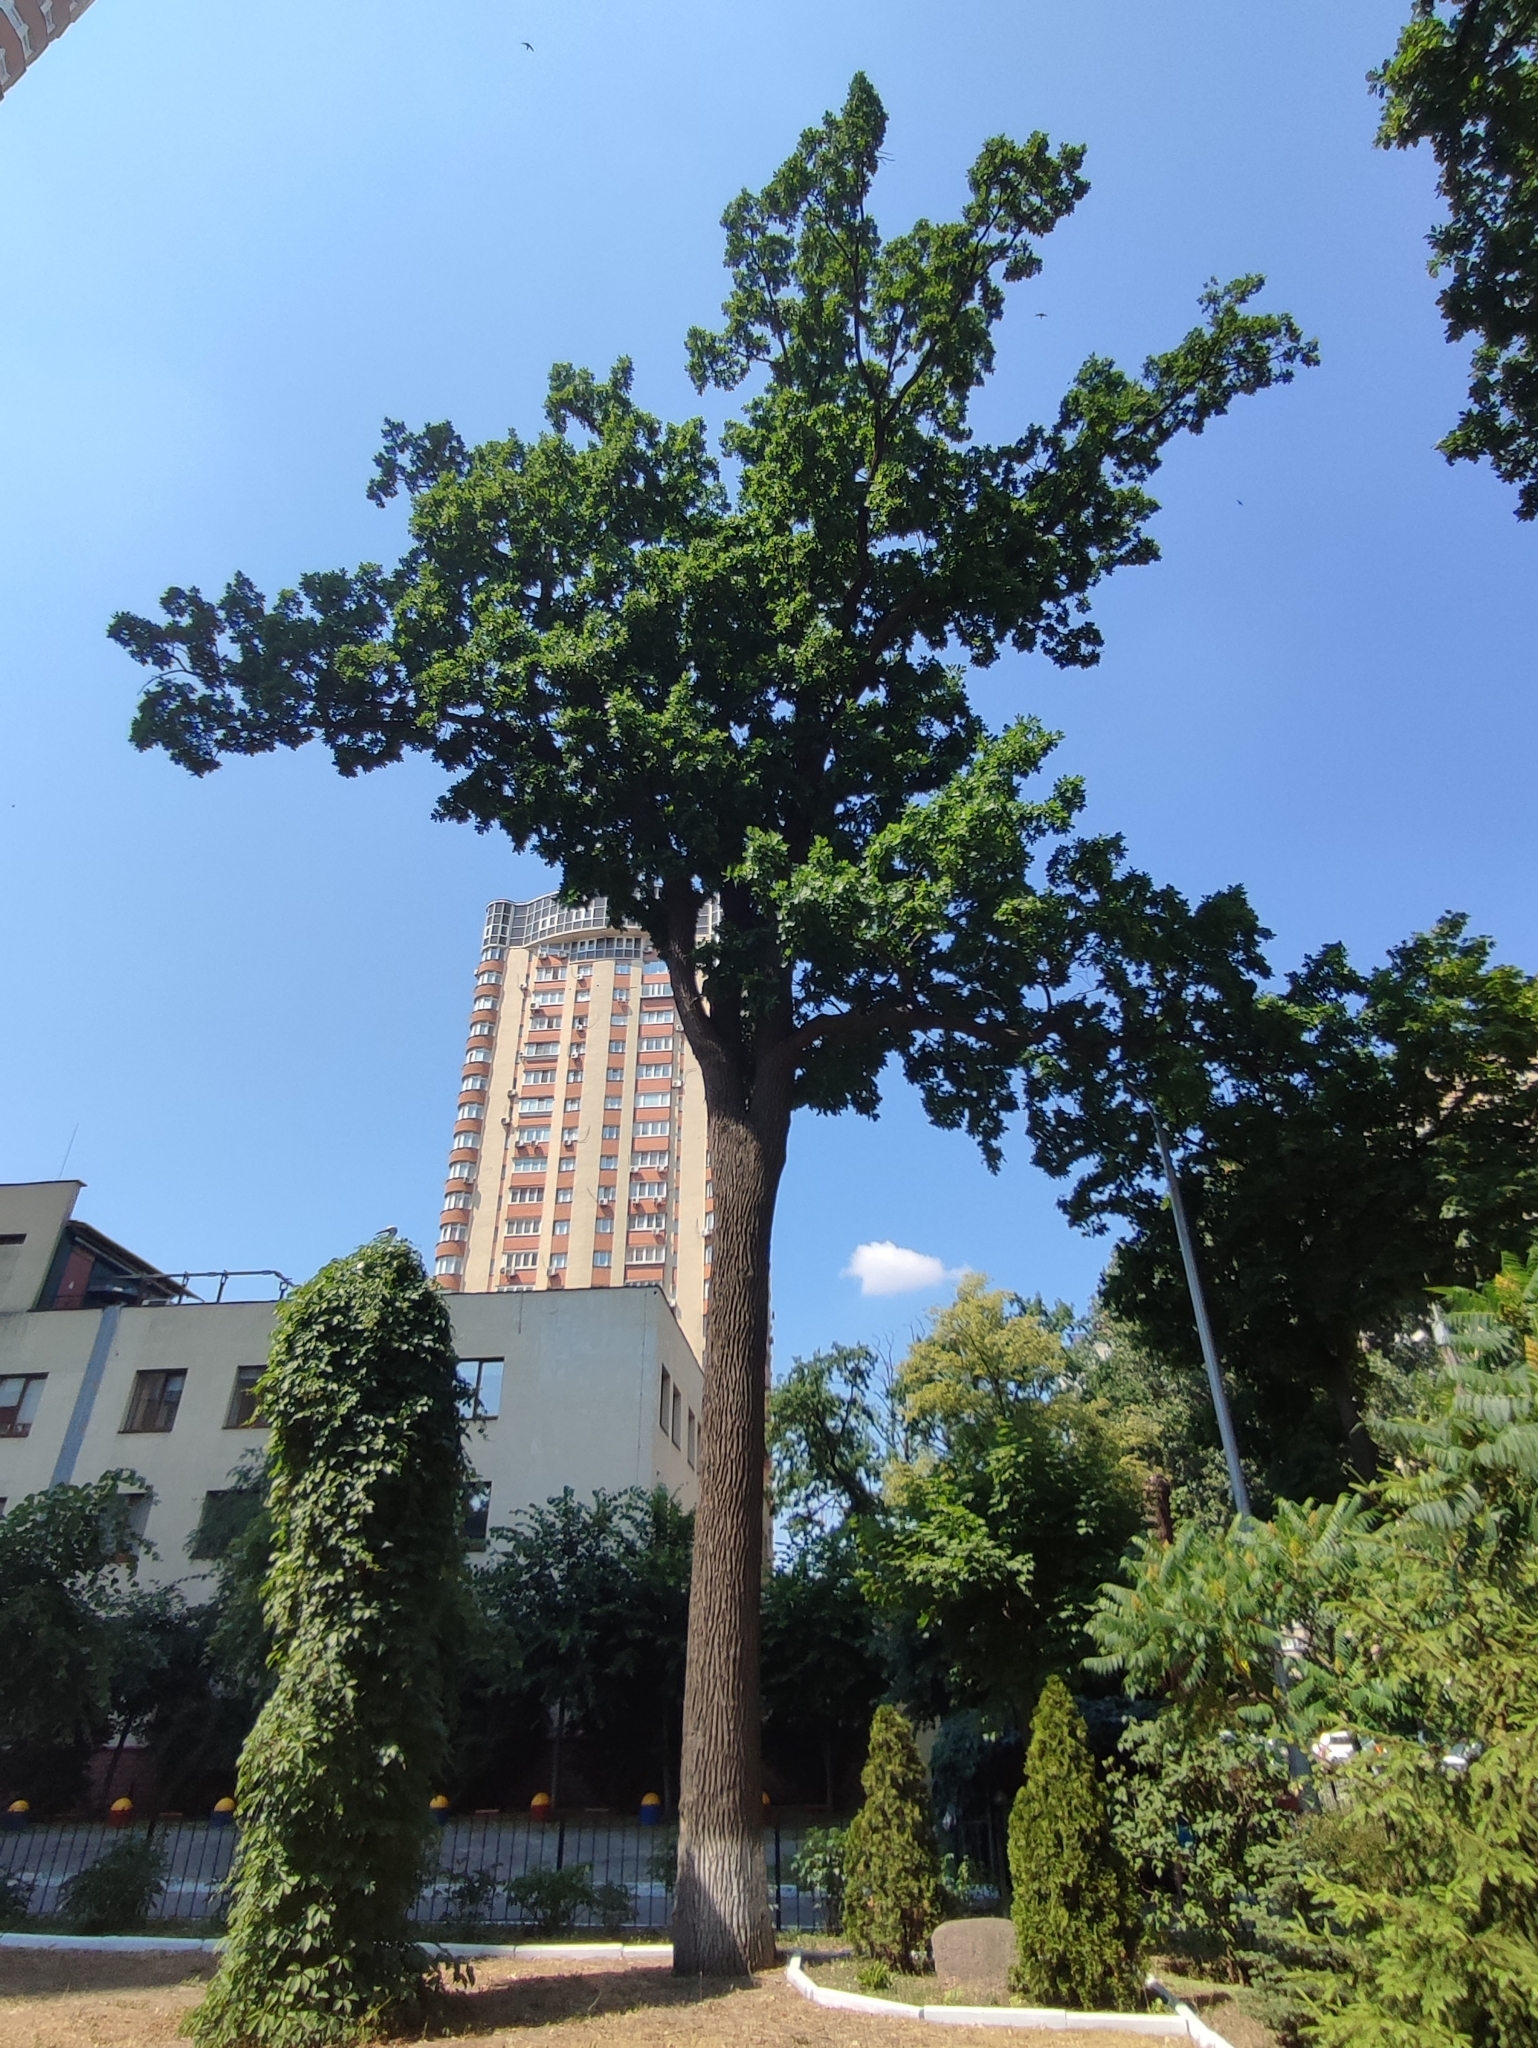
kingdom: Plantae
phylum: Tracheophyta
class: Magnoliopsida
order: Fagales
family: Fagaceae
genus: Quercus
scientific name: Quercus robur
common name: Pedunculate oak
